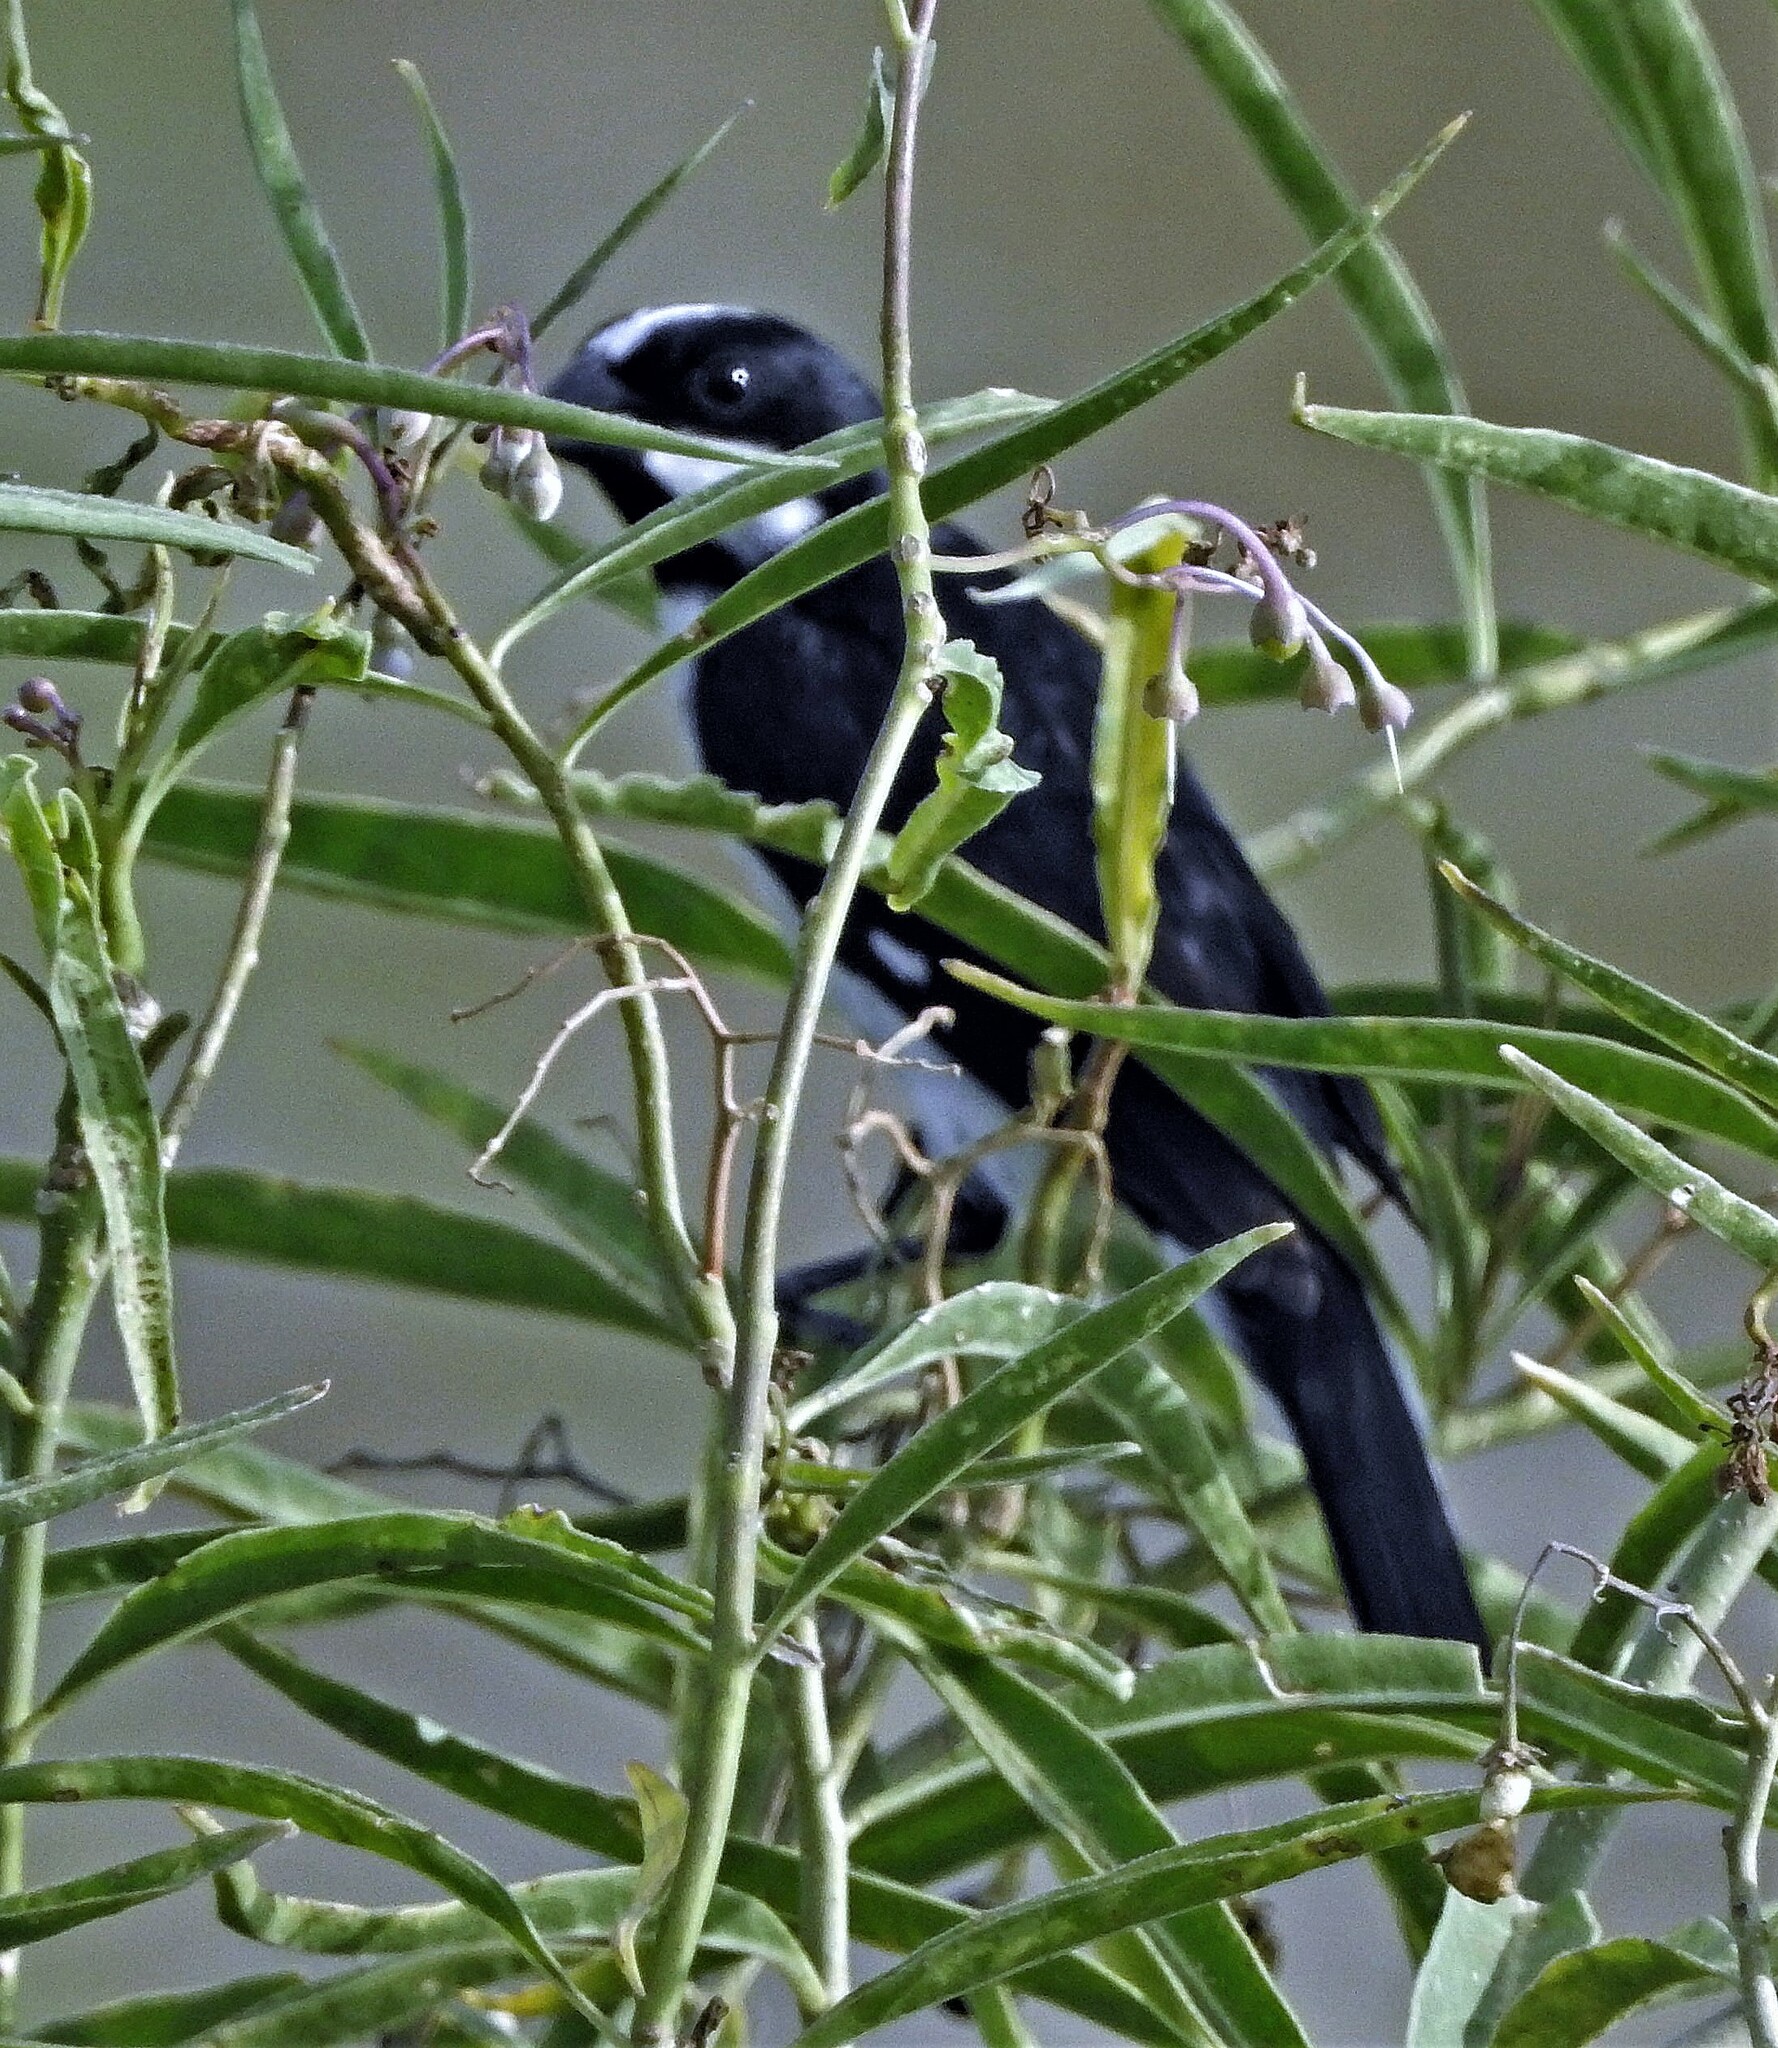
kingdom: Animalia
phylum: Chordata
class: Aves
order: Passeriformes
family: Thraupidae
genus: Sporophila
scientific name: Sporophila lineola
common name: Lined seedeater
